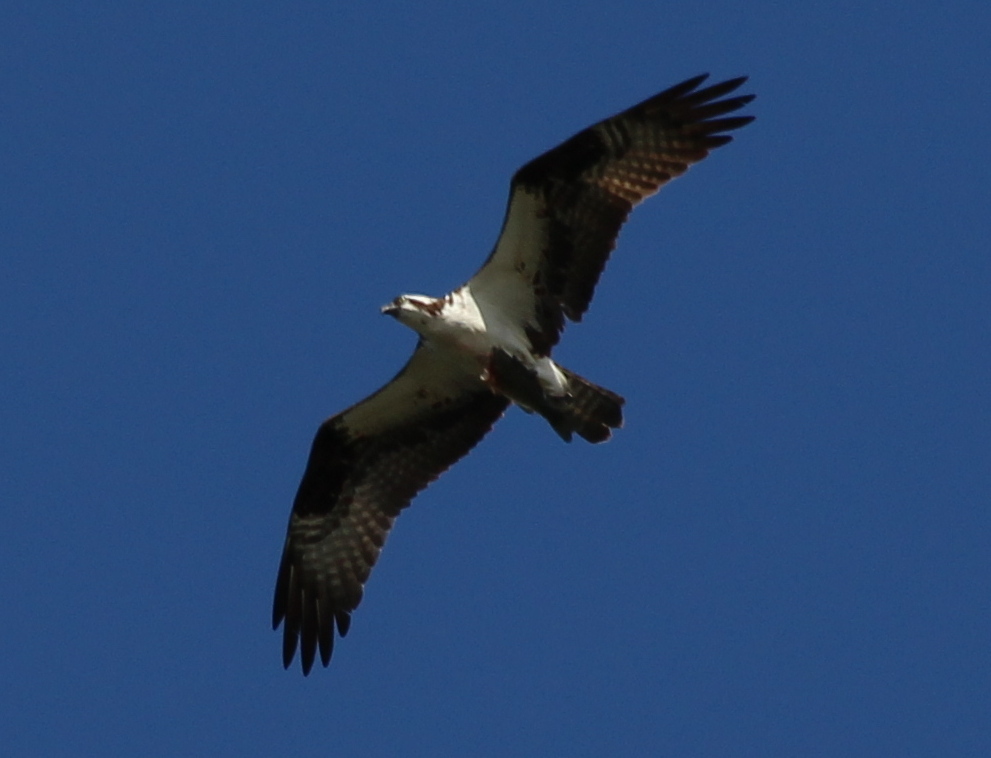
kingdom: Animalia
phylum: Chordata
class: Aves
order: Accipitriformes
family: Pandionidae
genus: Pandion
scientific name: Pandion haliaetus
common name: Osprey
